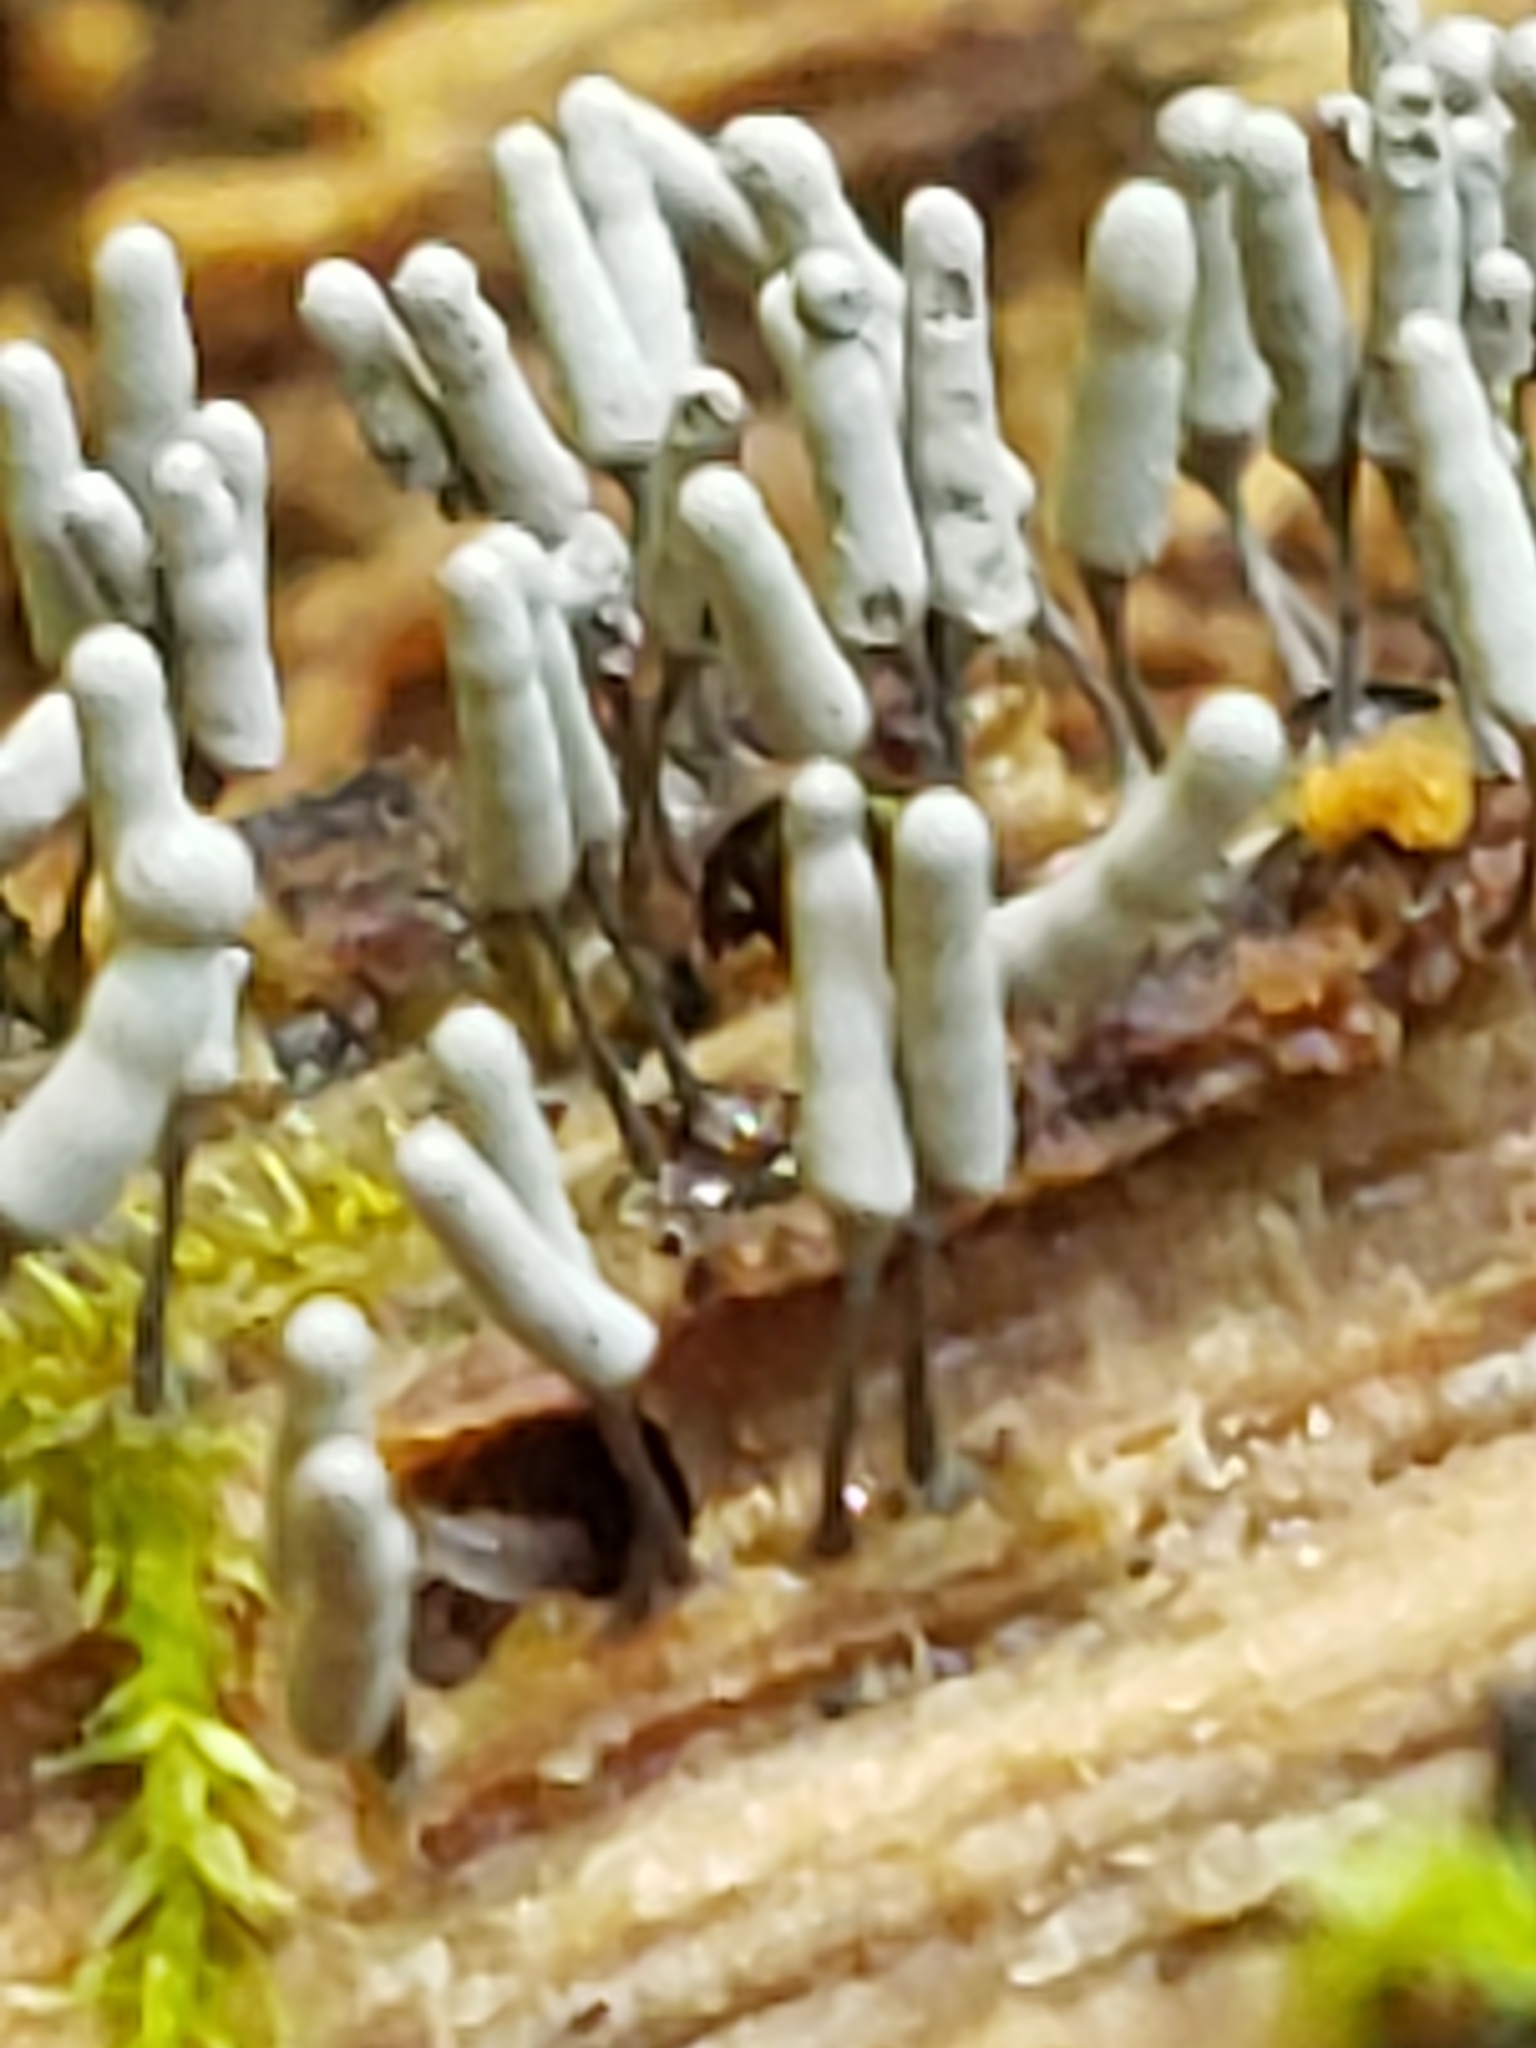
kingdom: Protozoa
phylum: Mycetozoa
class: Myxomycetes
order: Trichiales
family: Arcyriaceae
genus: Arcyria
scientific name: Arcyria cinerea
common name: White carnival candy slime mold
